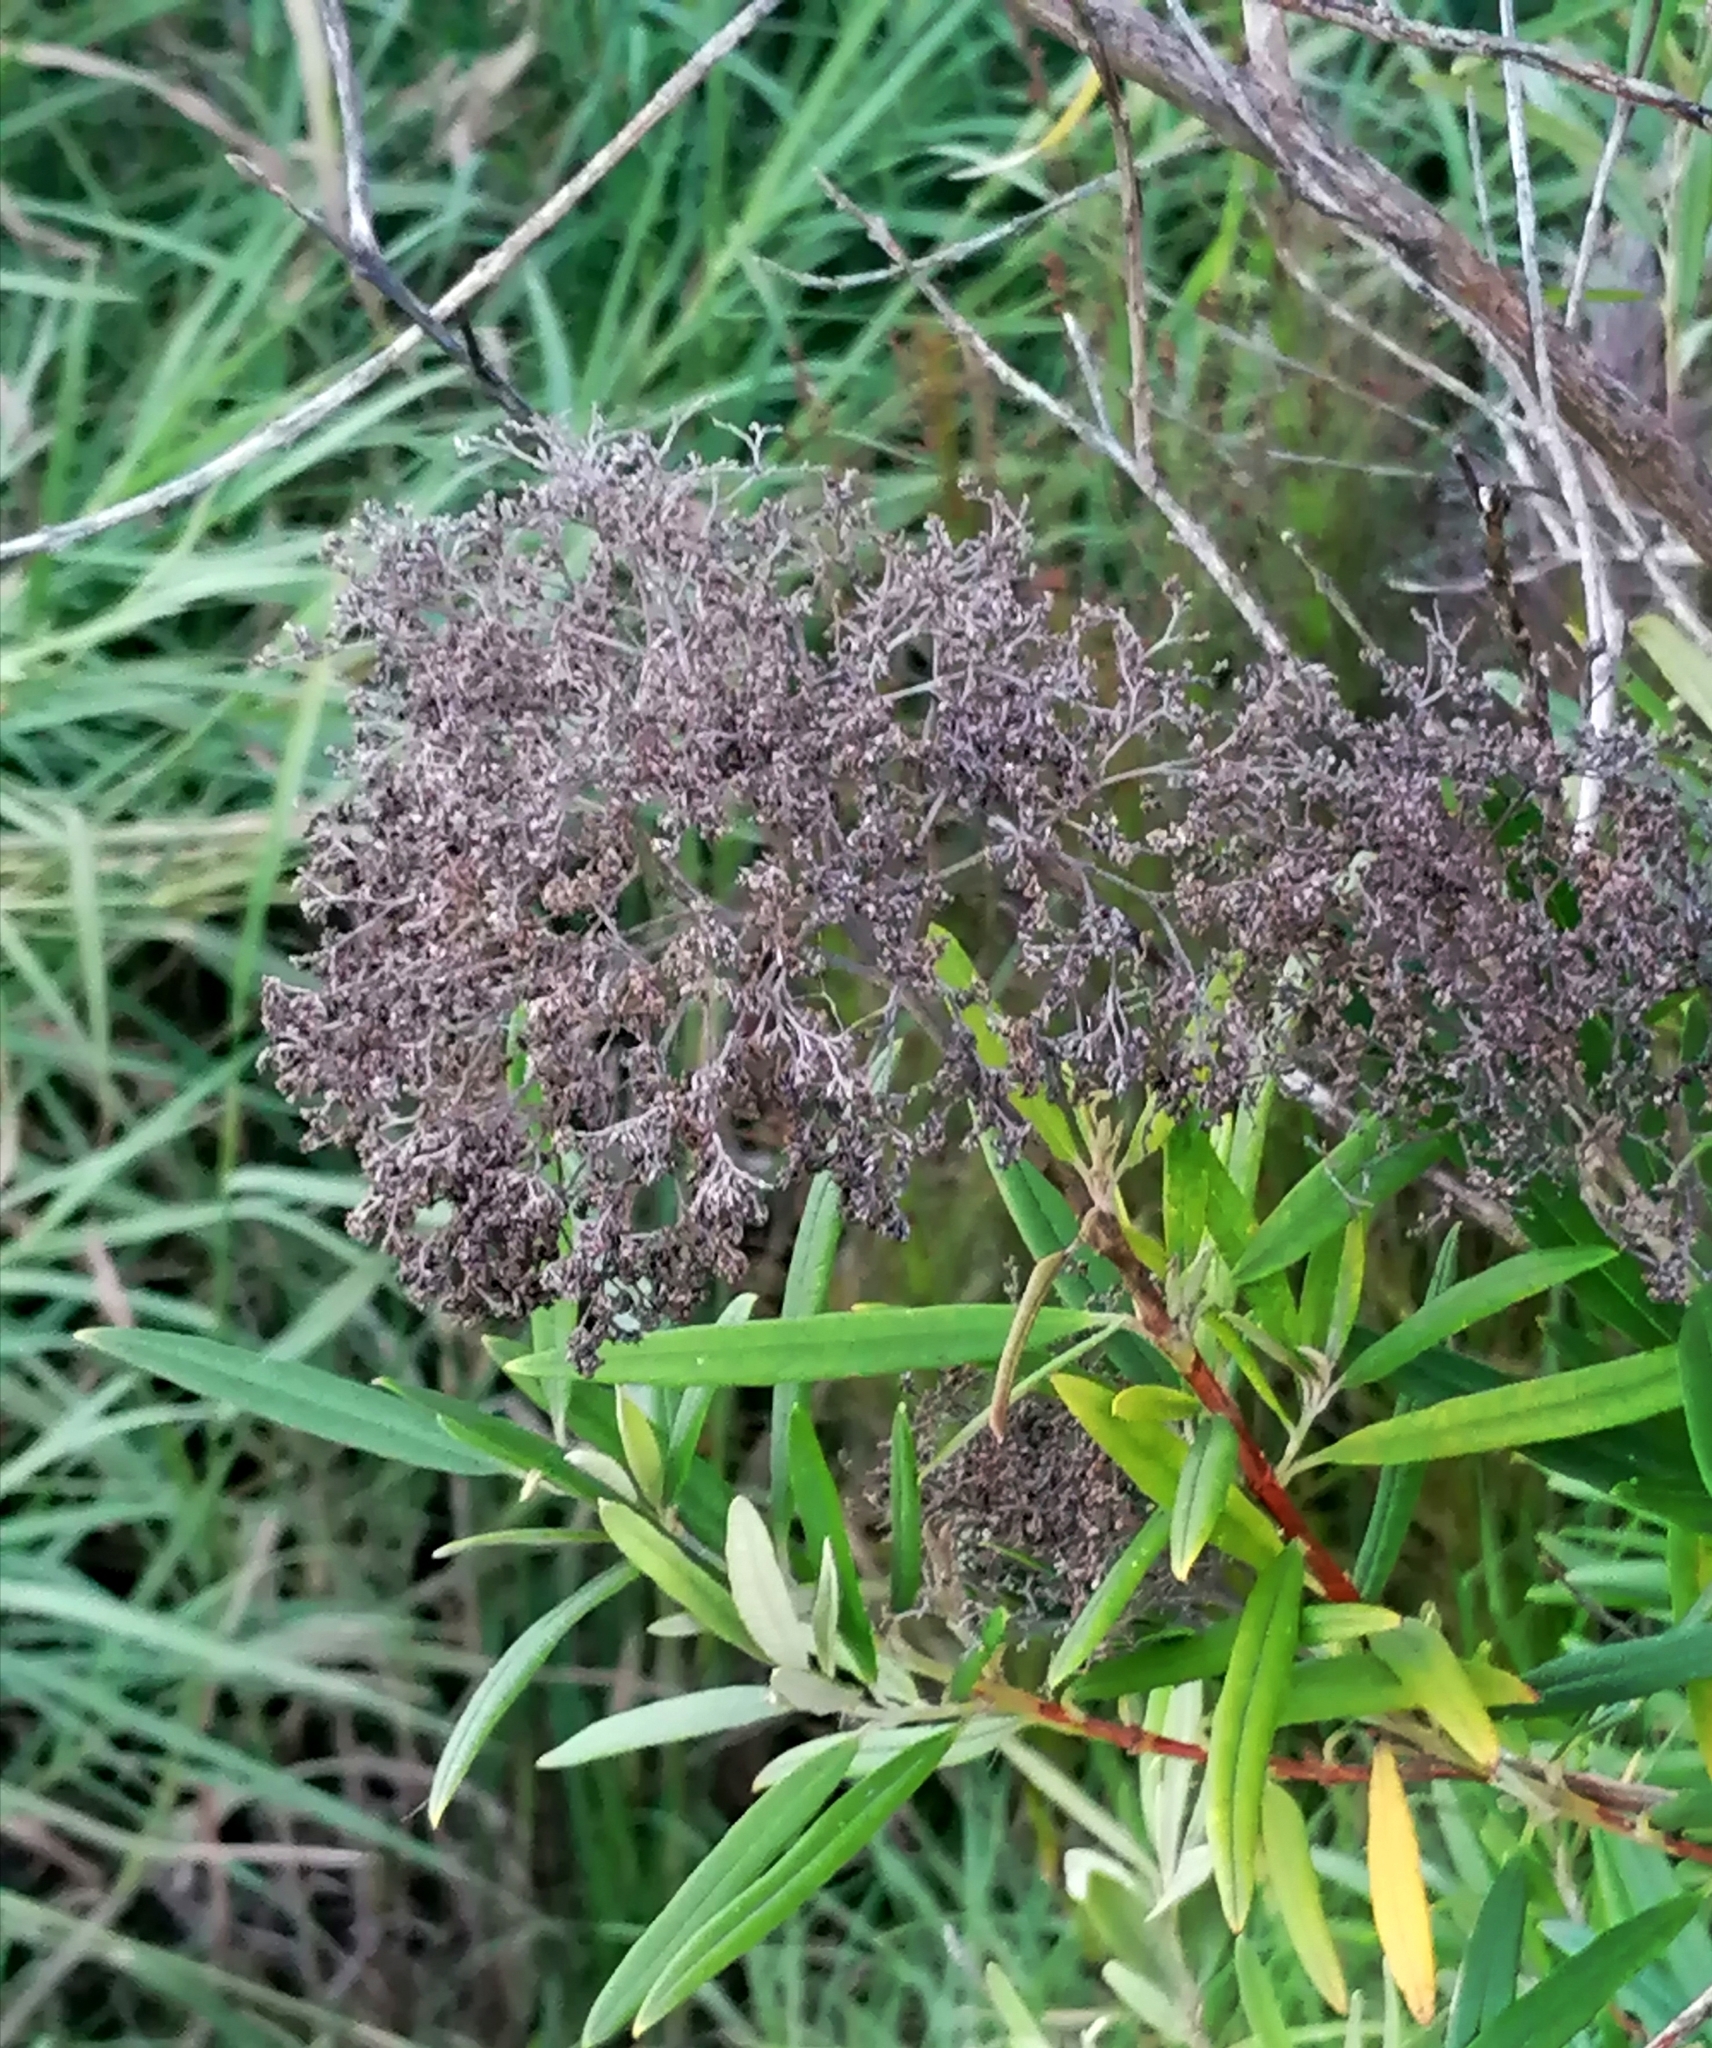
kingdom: Plantae
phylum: Tracheophyta
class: Magnoliopsida
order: Lamiales
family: Scrophulariaceae
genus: Buddleja
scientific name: Buddleja saligna
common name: False olive
